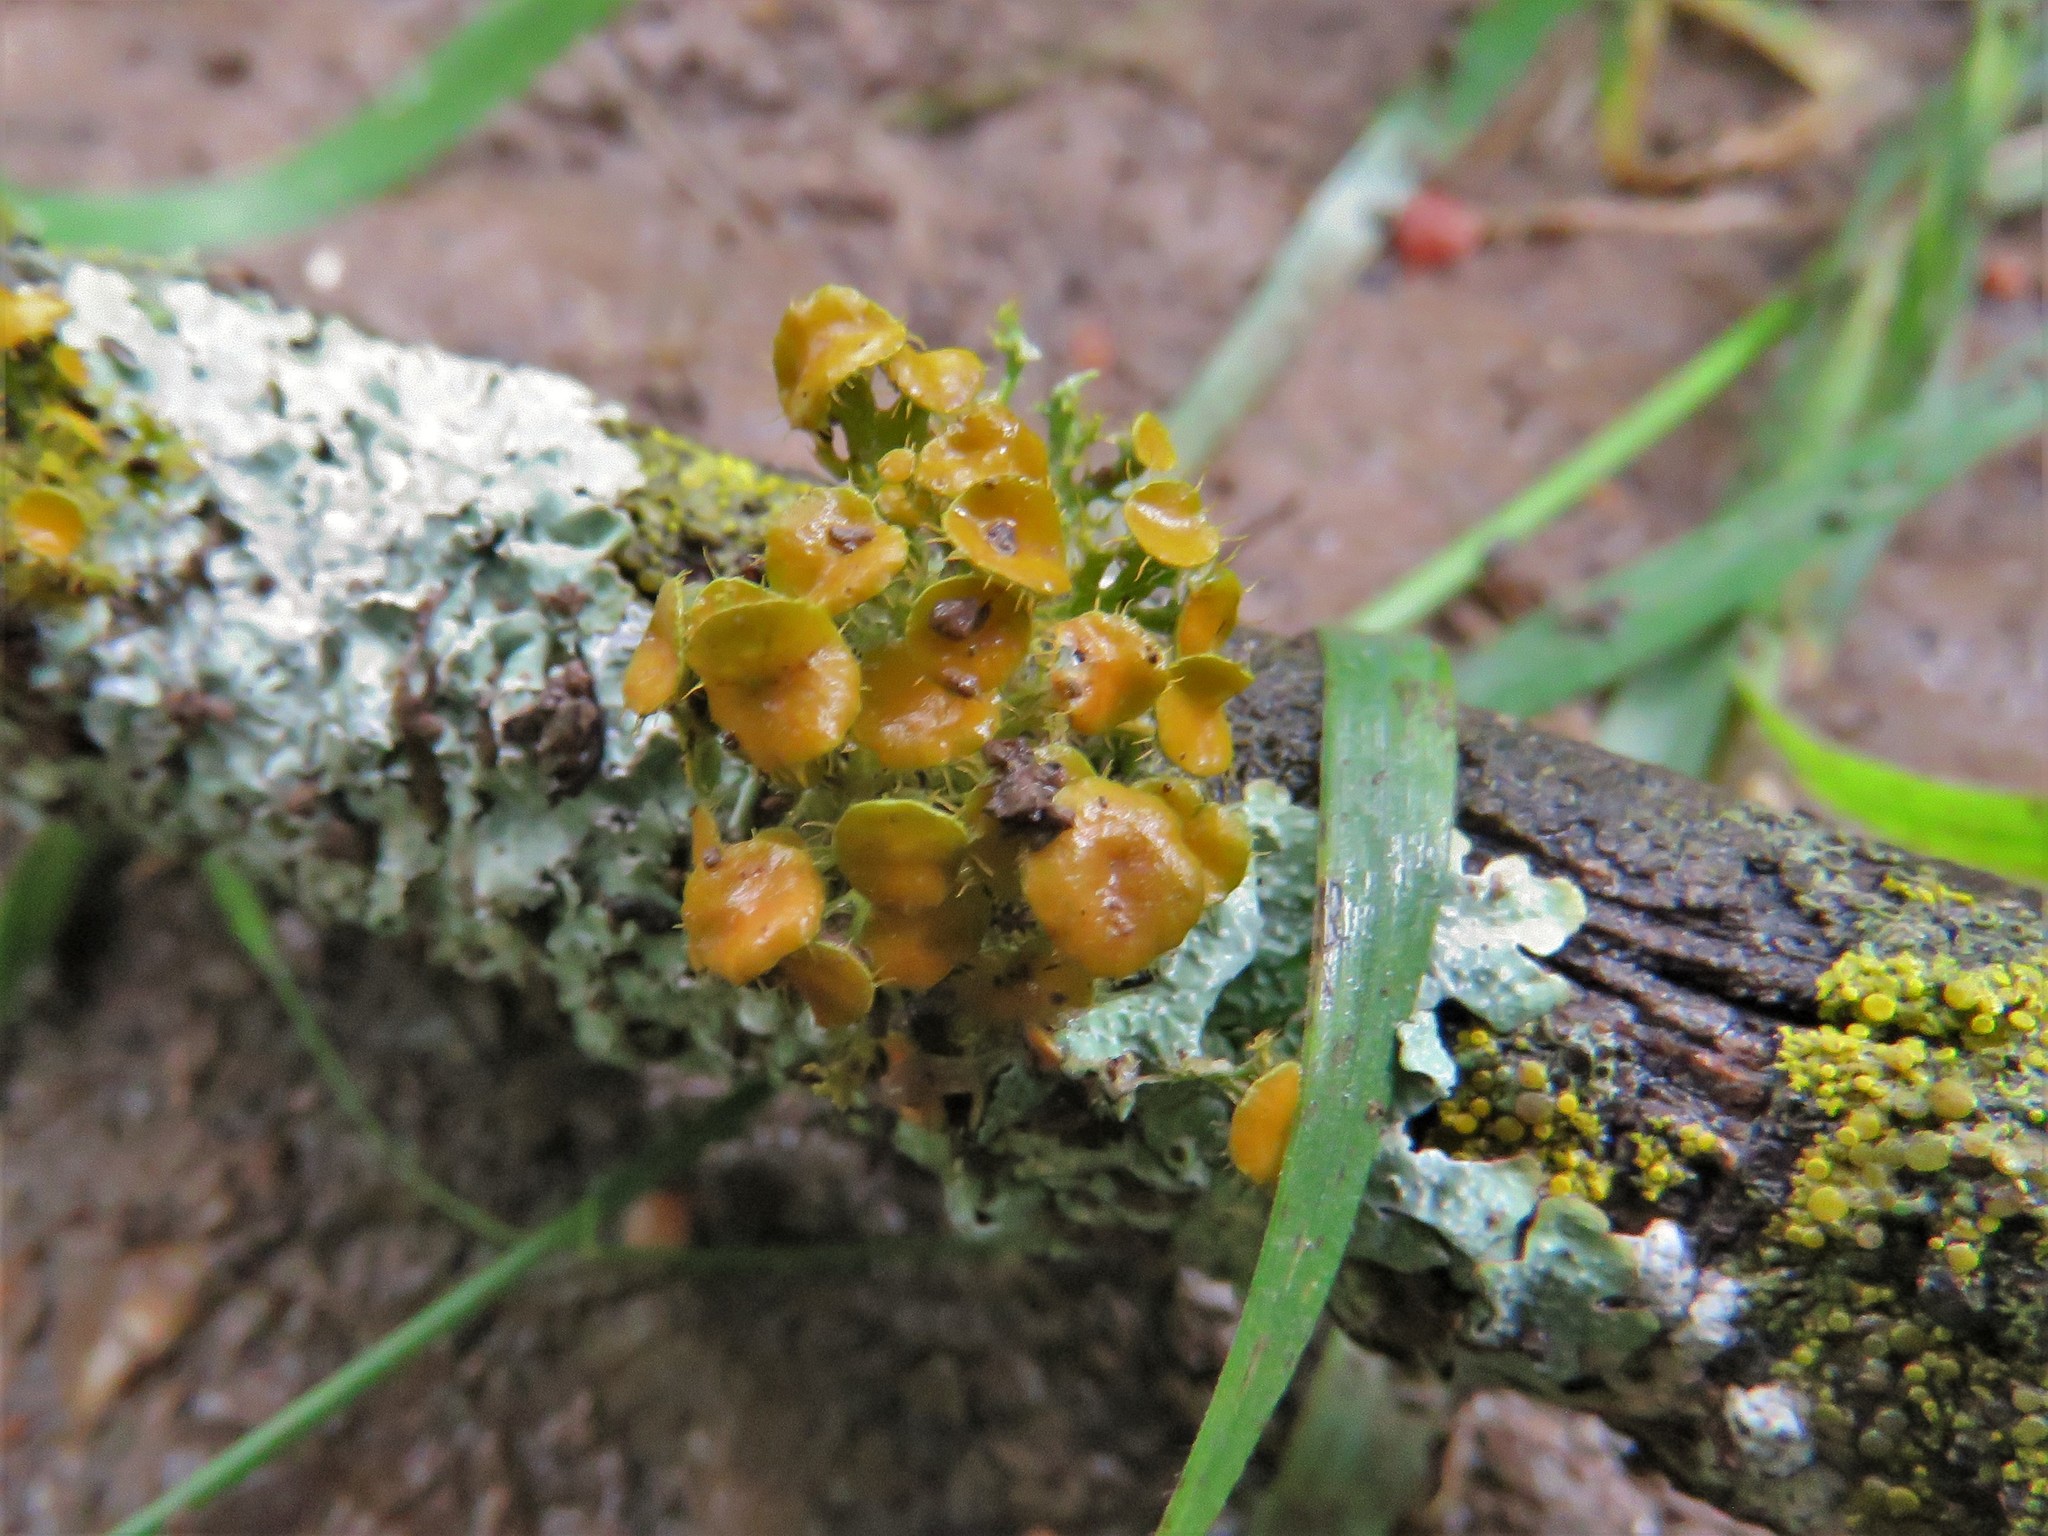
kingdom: Fungi
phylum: Ascomycota
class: Lecanoromycetes
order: Teloschistales
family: Teloschistaceae
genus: Niorma
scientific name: Niorma chrysophthalma
